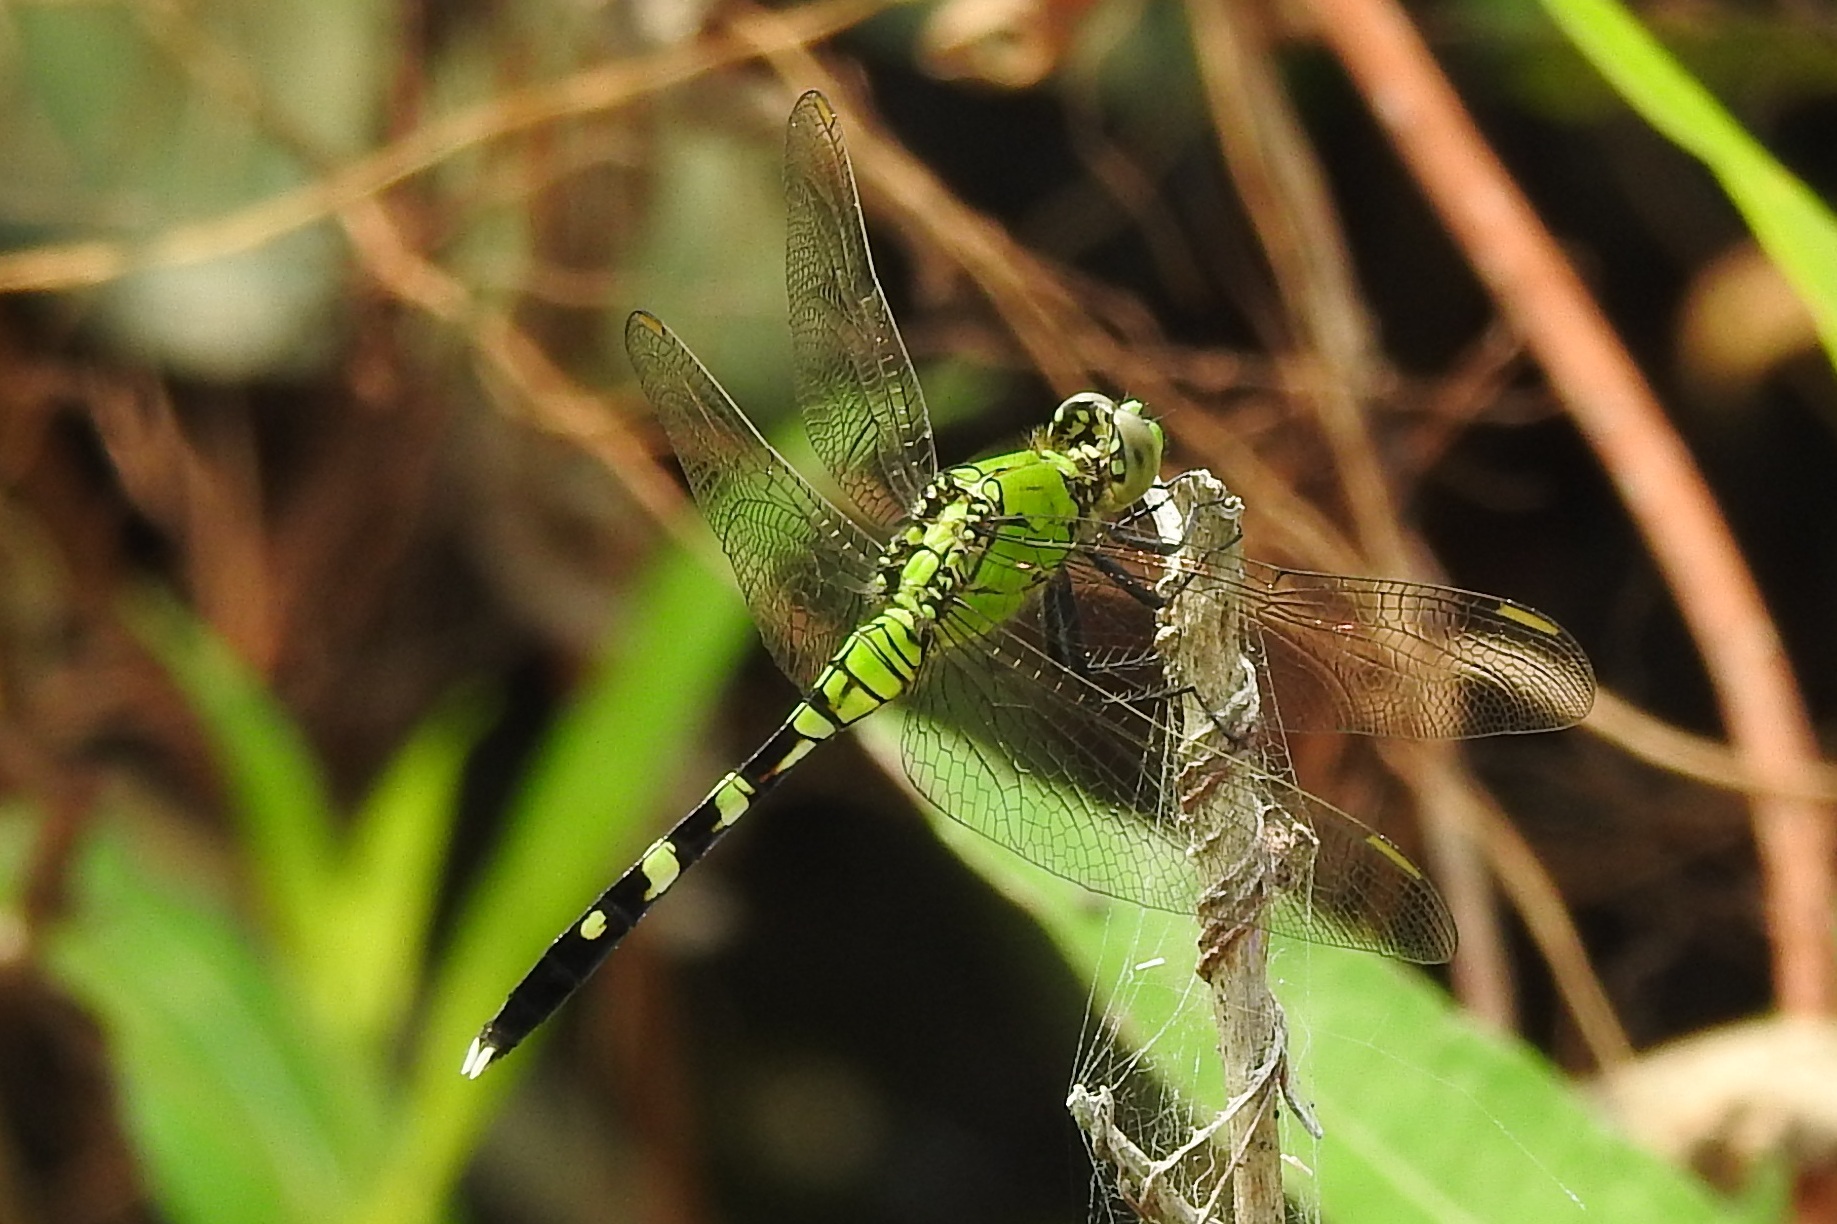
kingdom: Animalia
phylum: Arthropoda
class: Insecta
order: Odonata
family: Libellulidae
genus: Erythemis
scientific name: Erythemis simplicicollis
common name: Eastern pondhawk
